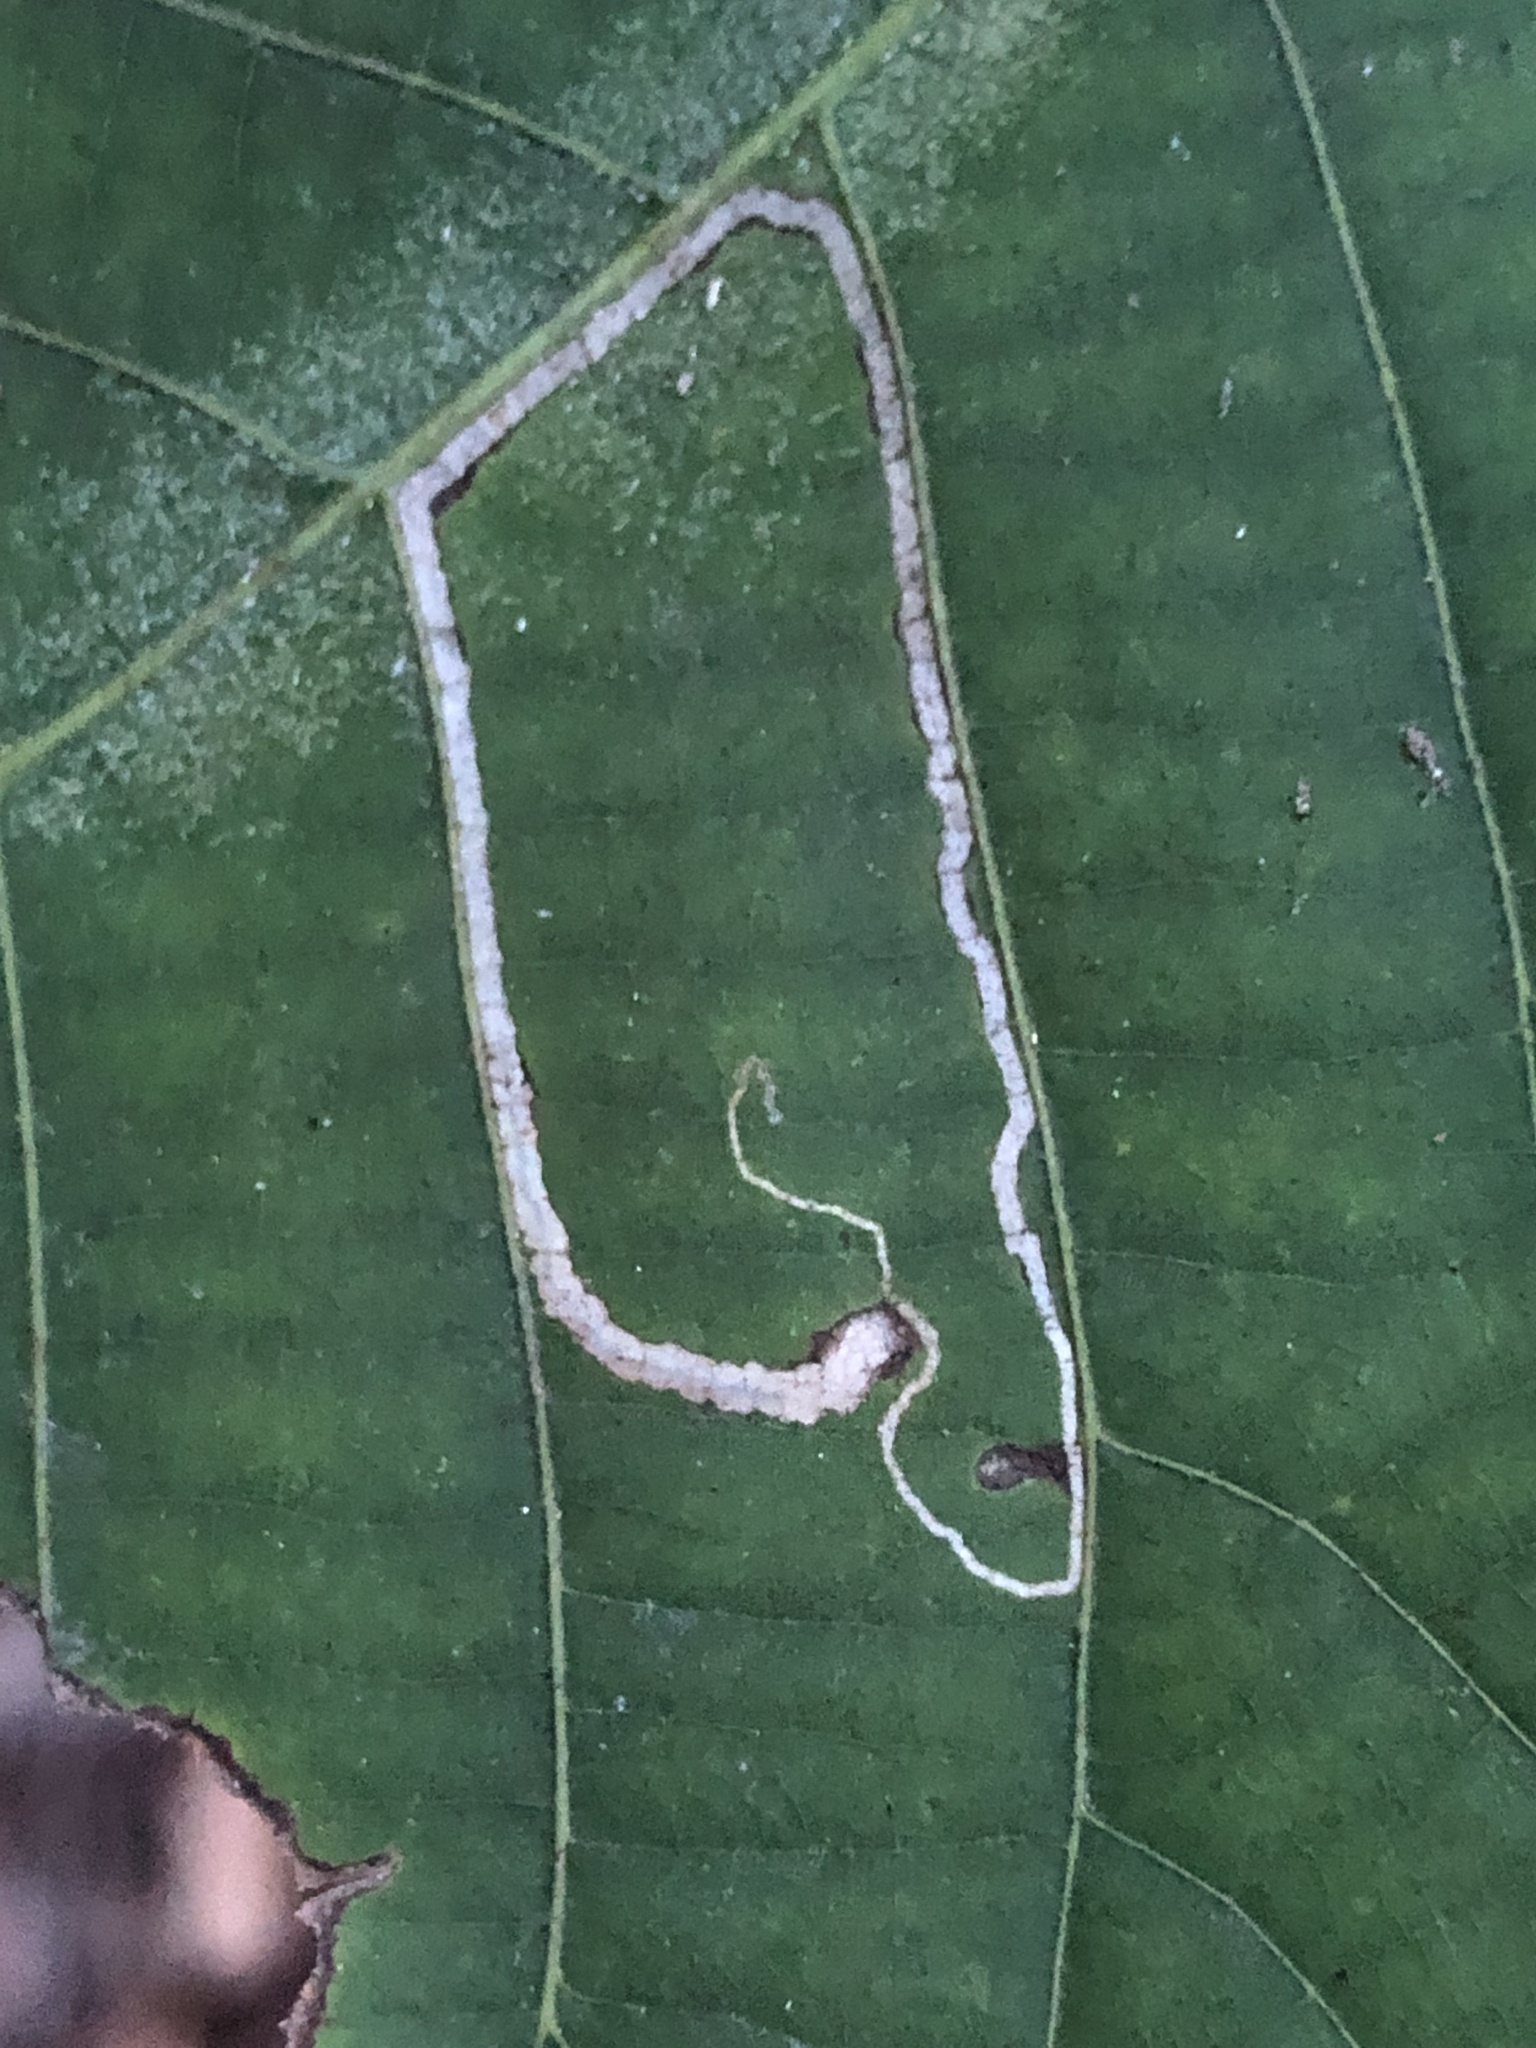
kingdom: Animalia
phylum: Arthropoda
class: Insecta
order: Lepidoptera
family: Nepticulidae
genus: Stigmella
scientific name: Stigmella caryaefoliella
